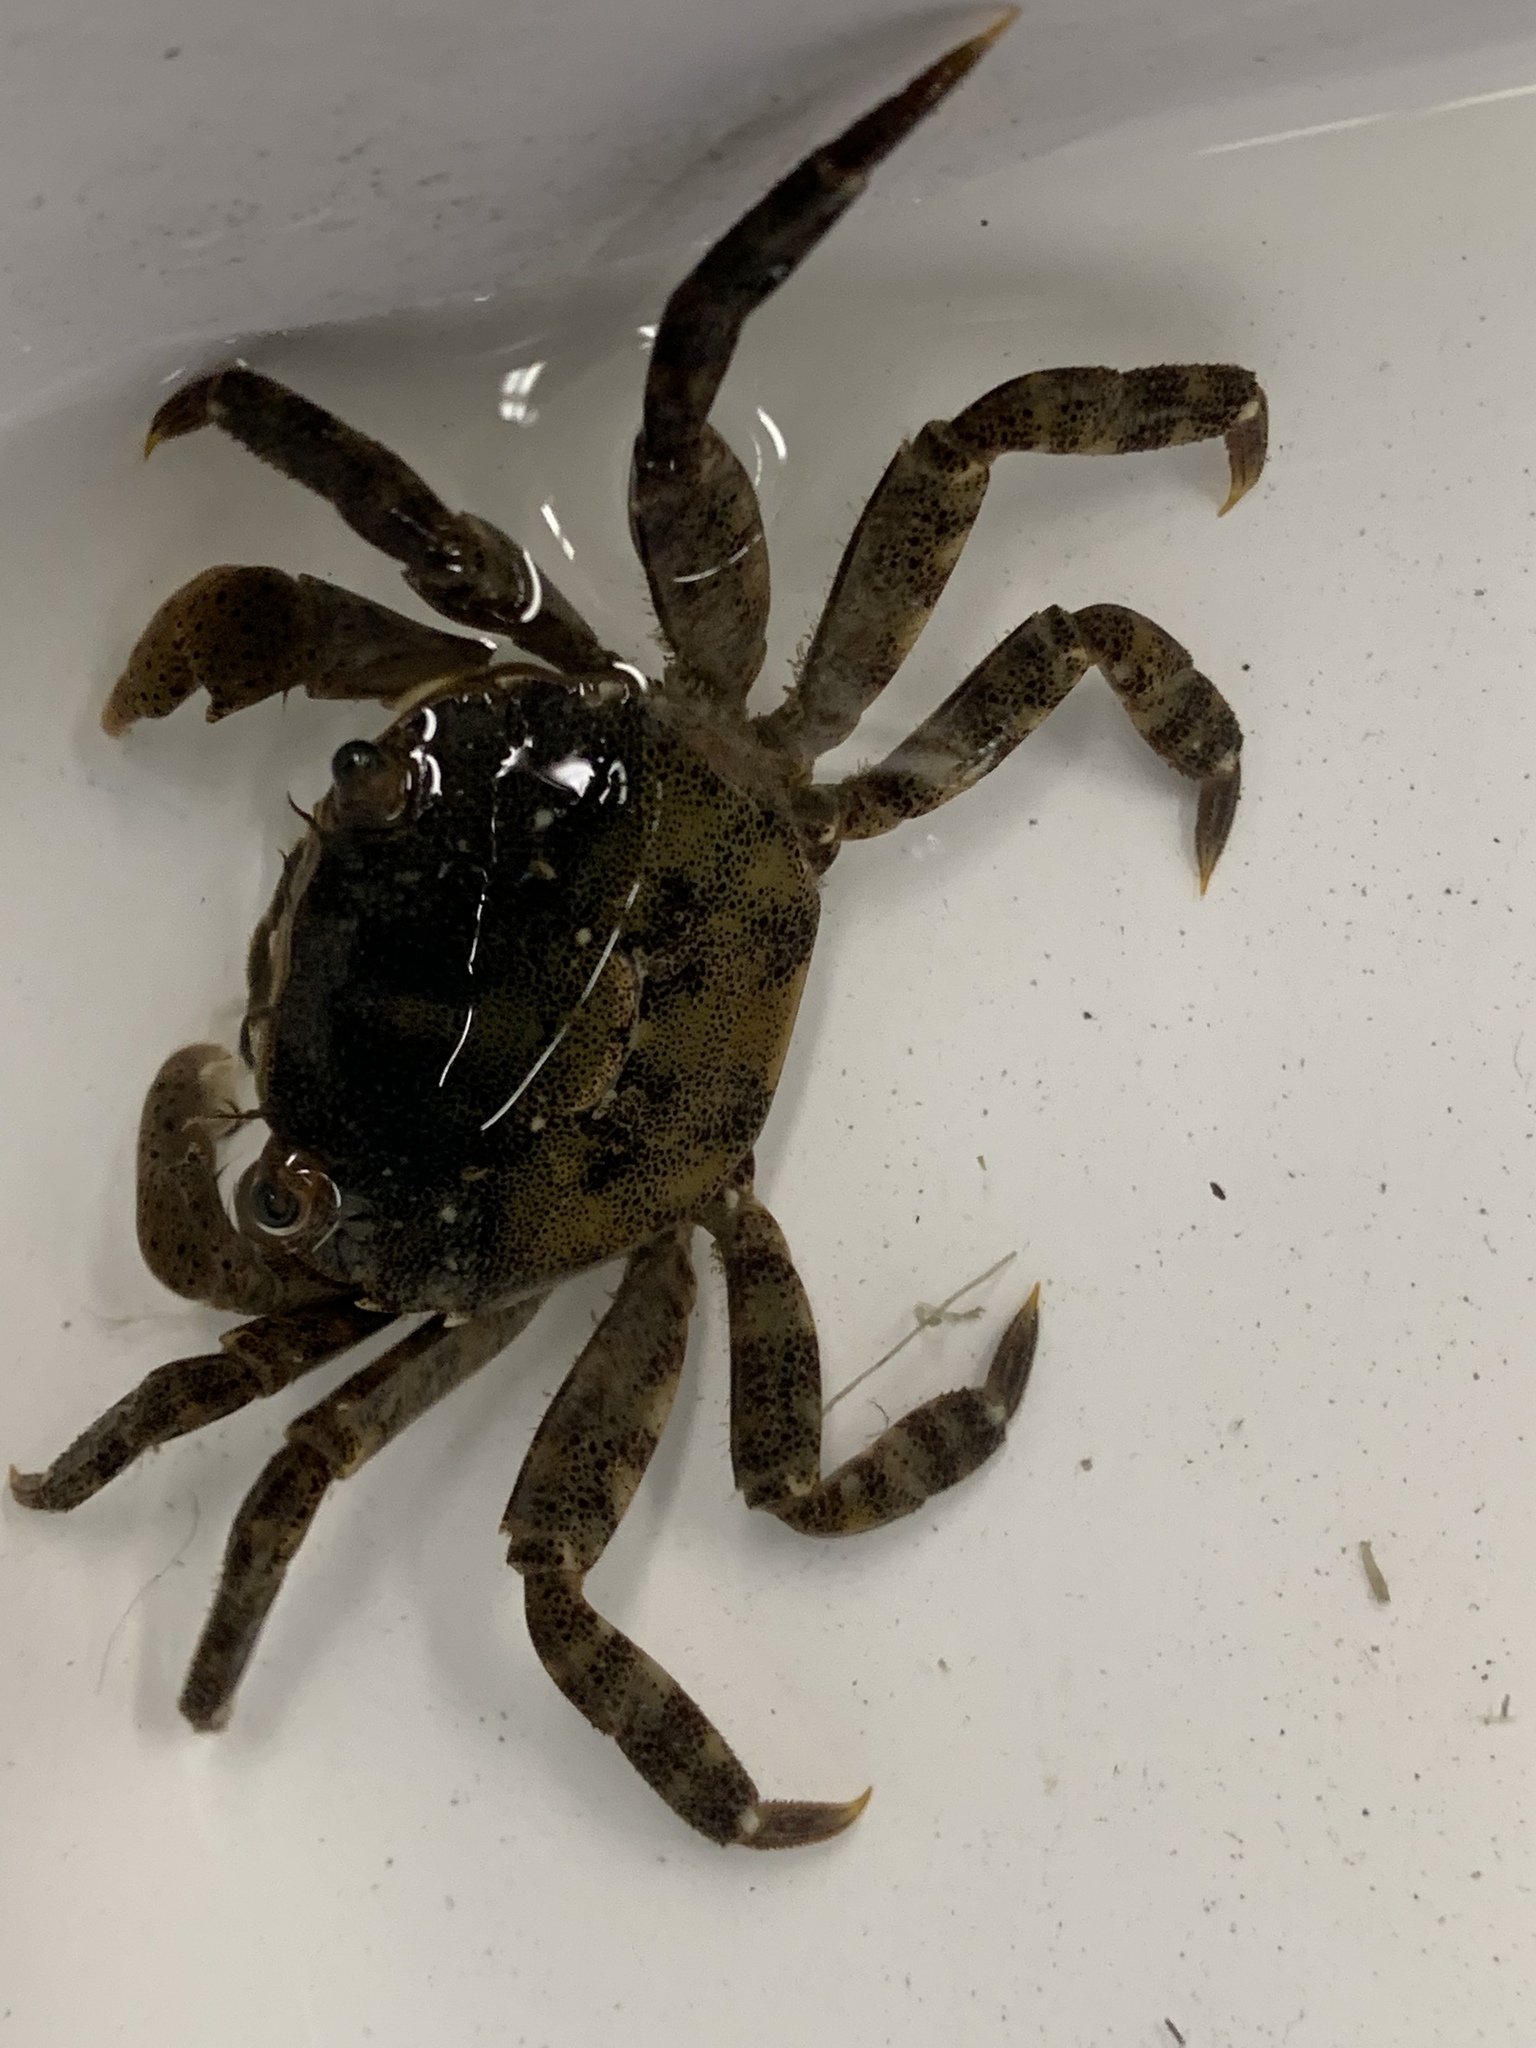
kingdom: Animalia
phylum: Arthropoda
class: Malacostraca
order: Decapoda
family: Varunidae
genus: Hemigrapsus
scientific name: Hemigrapsus sanguineus
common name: Asian shore crab
